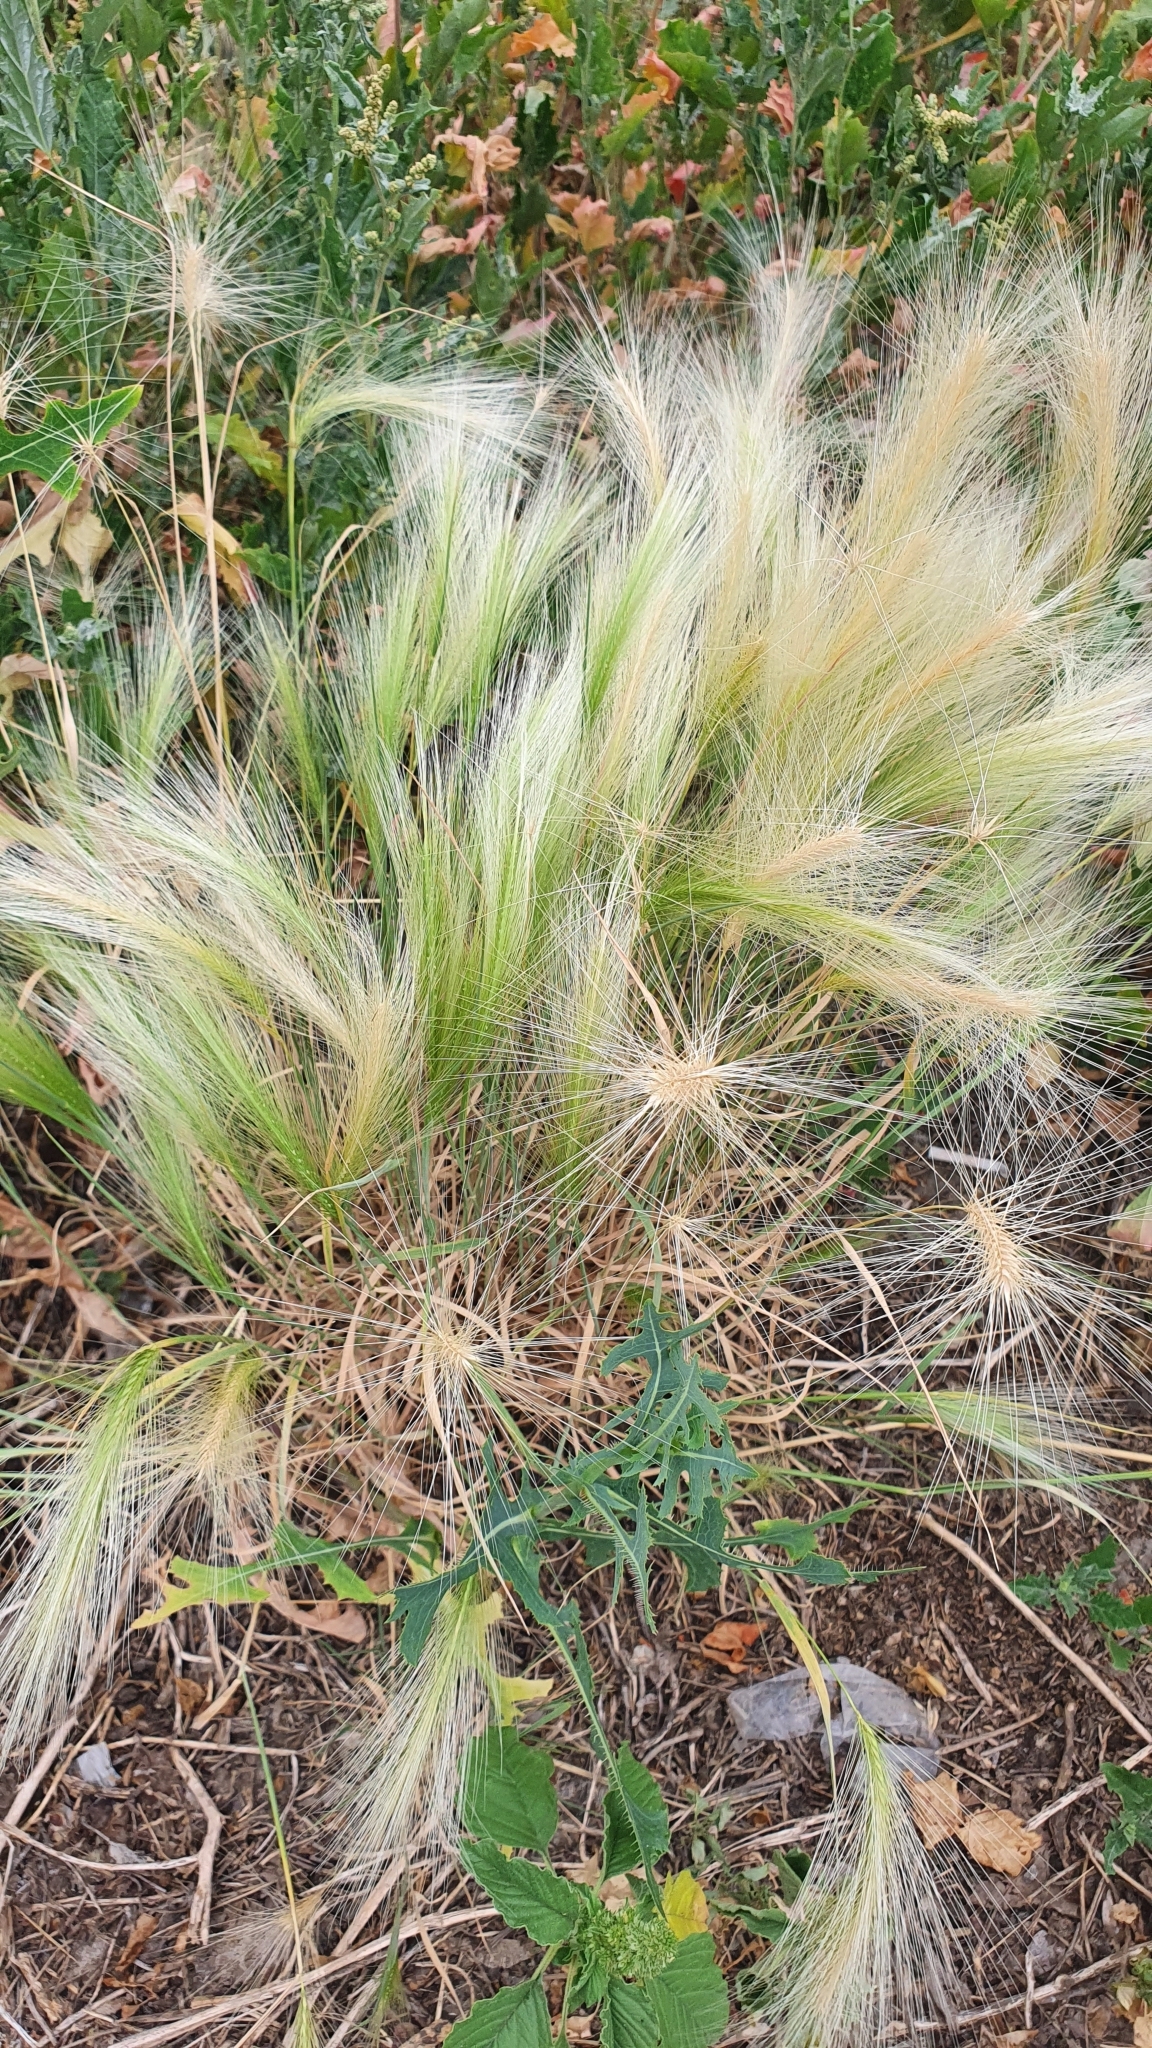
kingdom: Plantae
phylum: Tracheophyta
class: Liliopsida
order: Poales
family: Poaceae
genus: Hordeum
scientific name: Hordeum jubatum
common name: Foxtail barley
